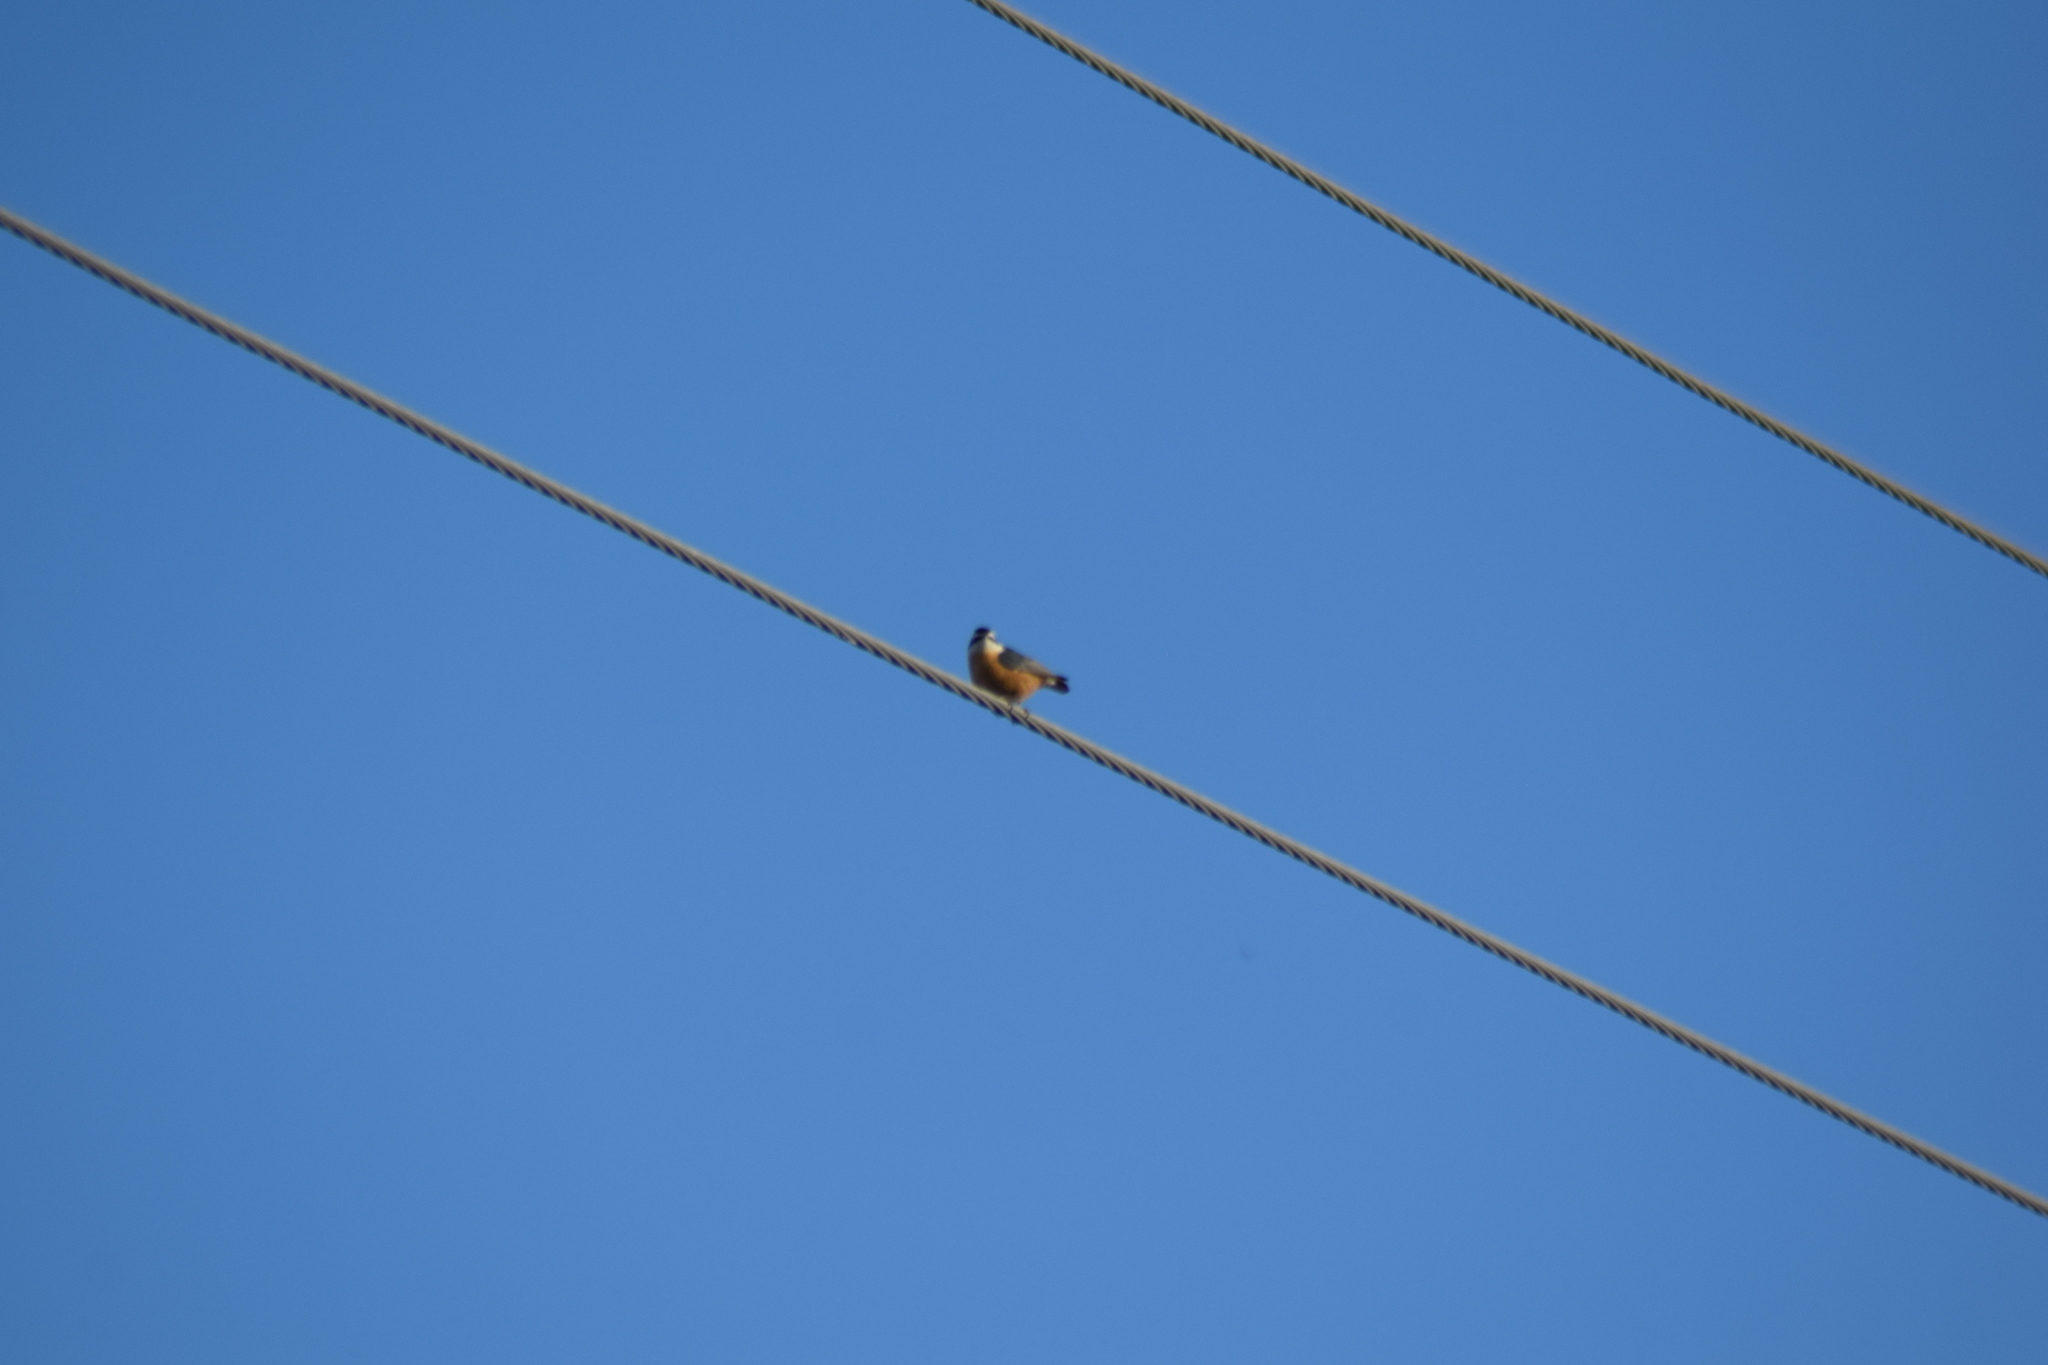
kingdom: Animalia
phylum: Chordata
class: Aves
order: Passeriformes
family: Sittidae
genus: Sitta
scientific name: Sitta canadensis
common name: Red-breasted nuthatch
